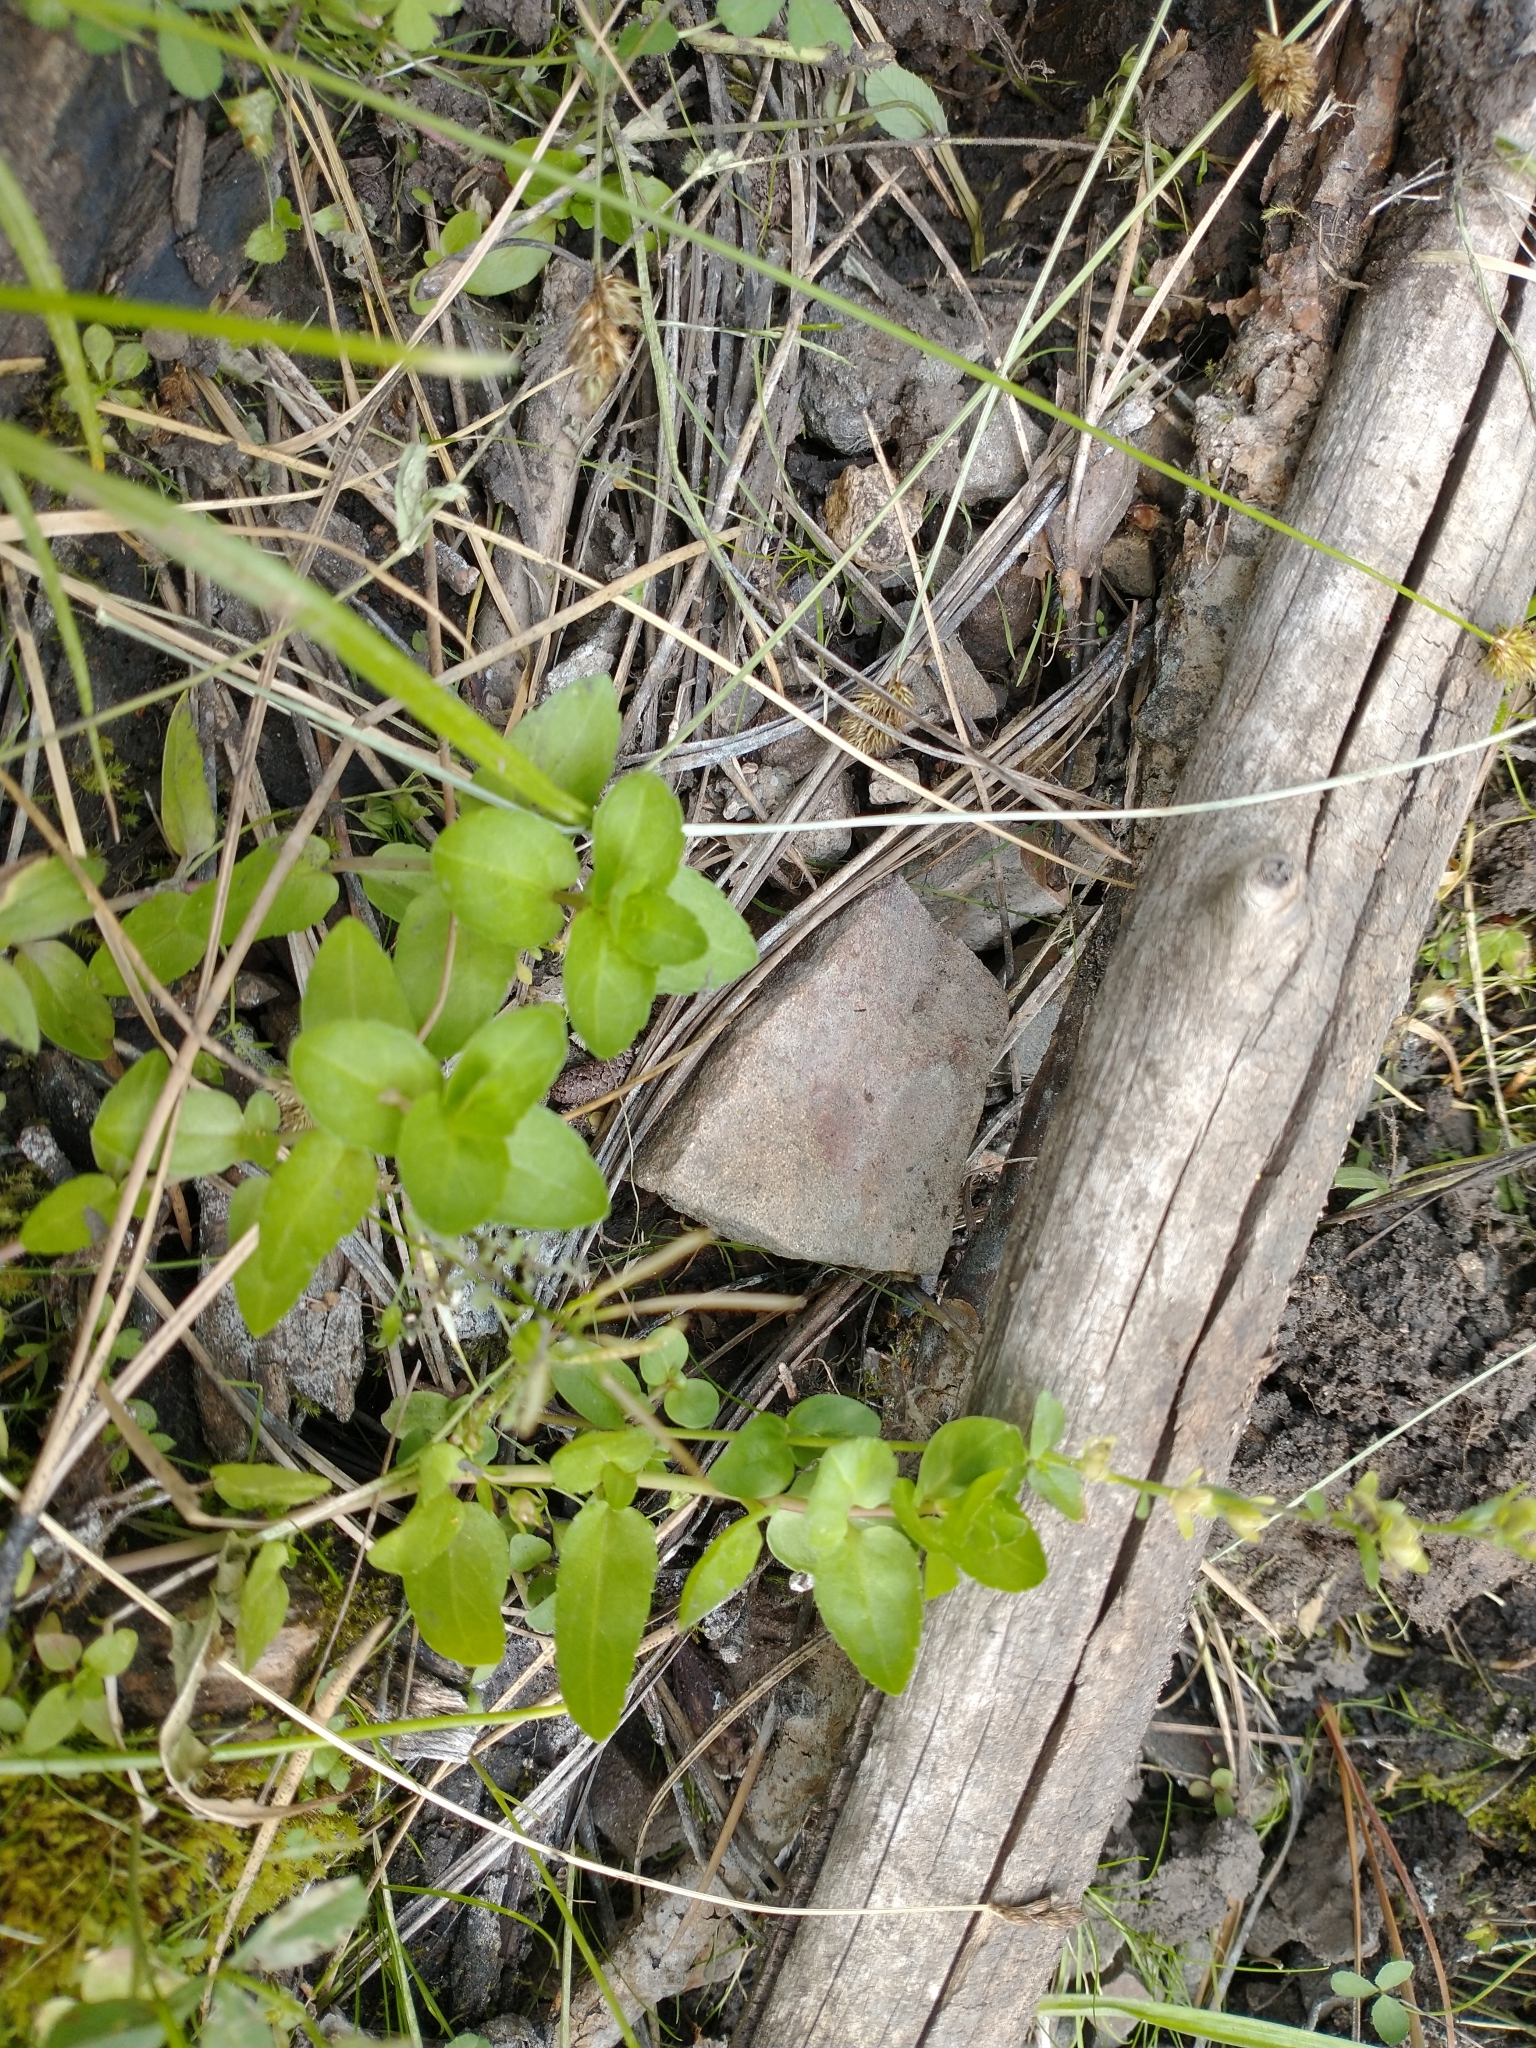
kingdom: Plantae
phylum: Tracheophyta
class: Magnoliopsida
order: Lamiales
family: Plantaginaceae
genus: Veronica
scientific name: Veronica serpyllifolia
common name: Thyme-leaved speedwell
